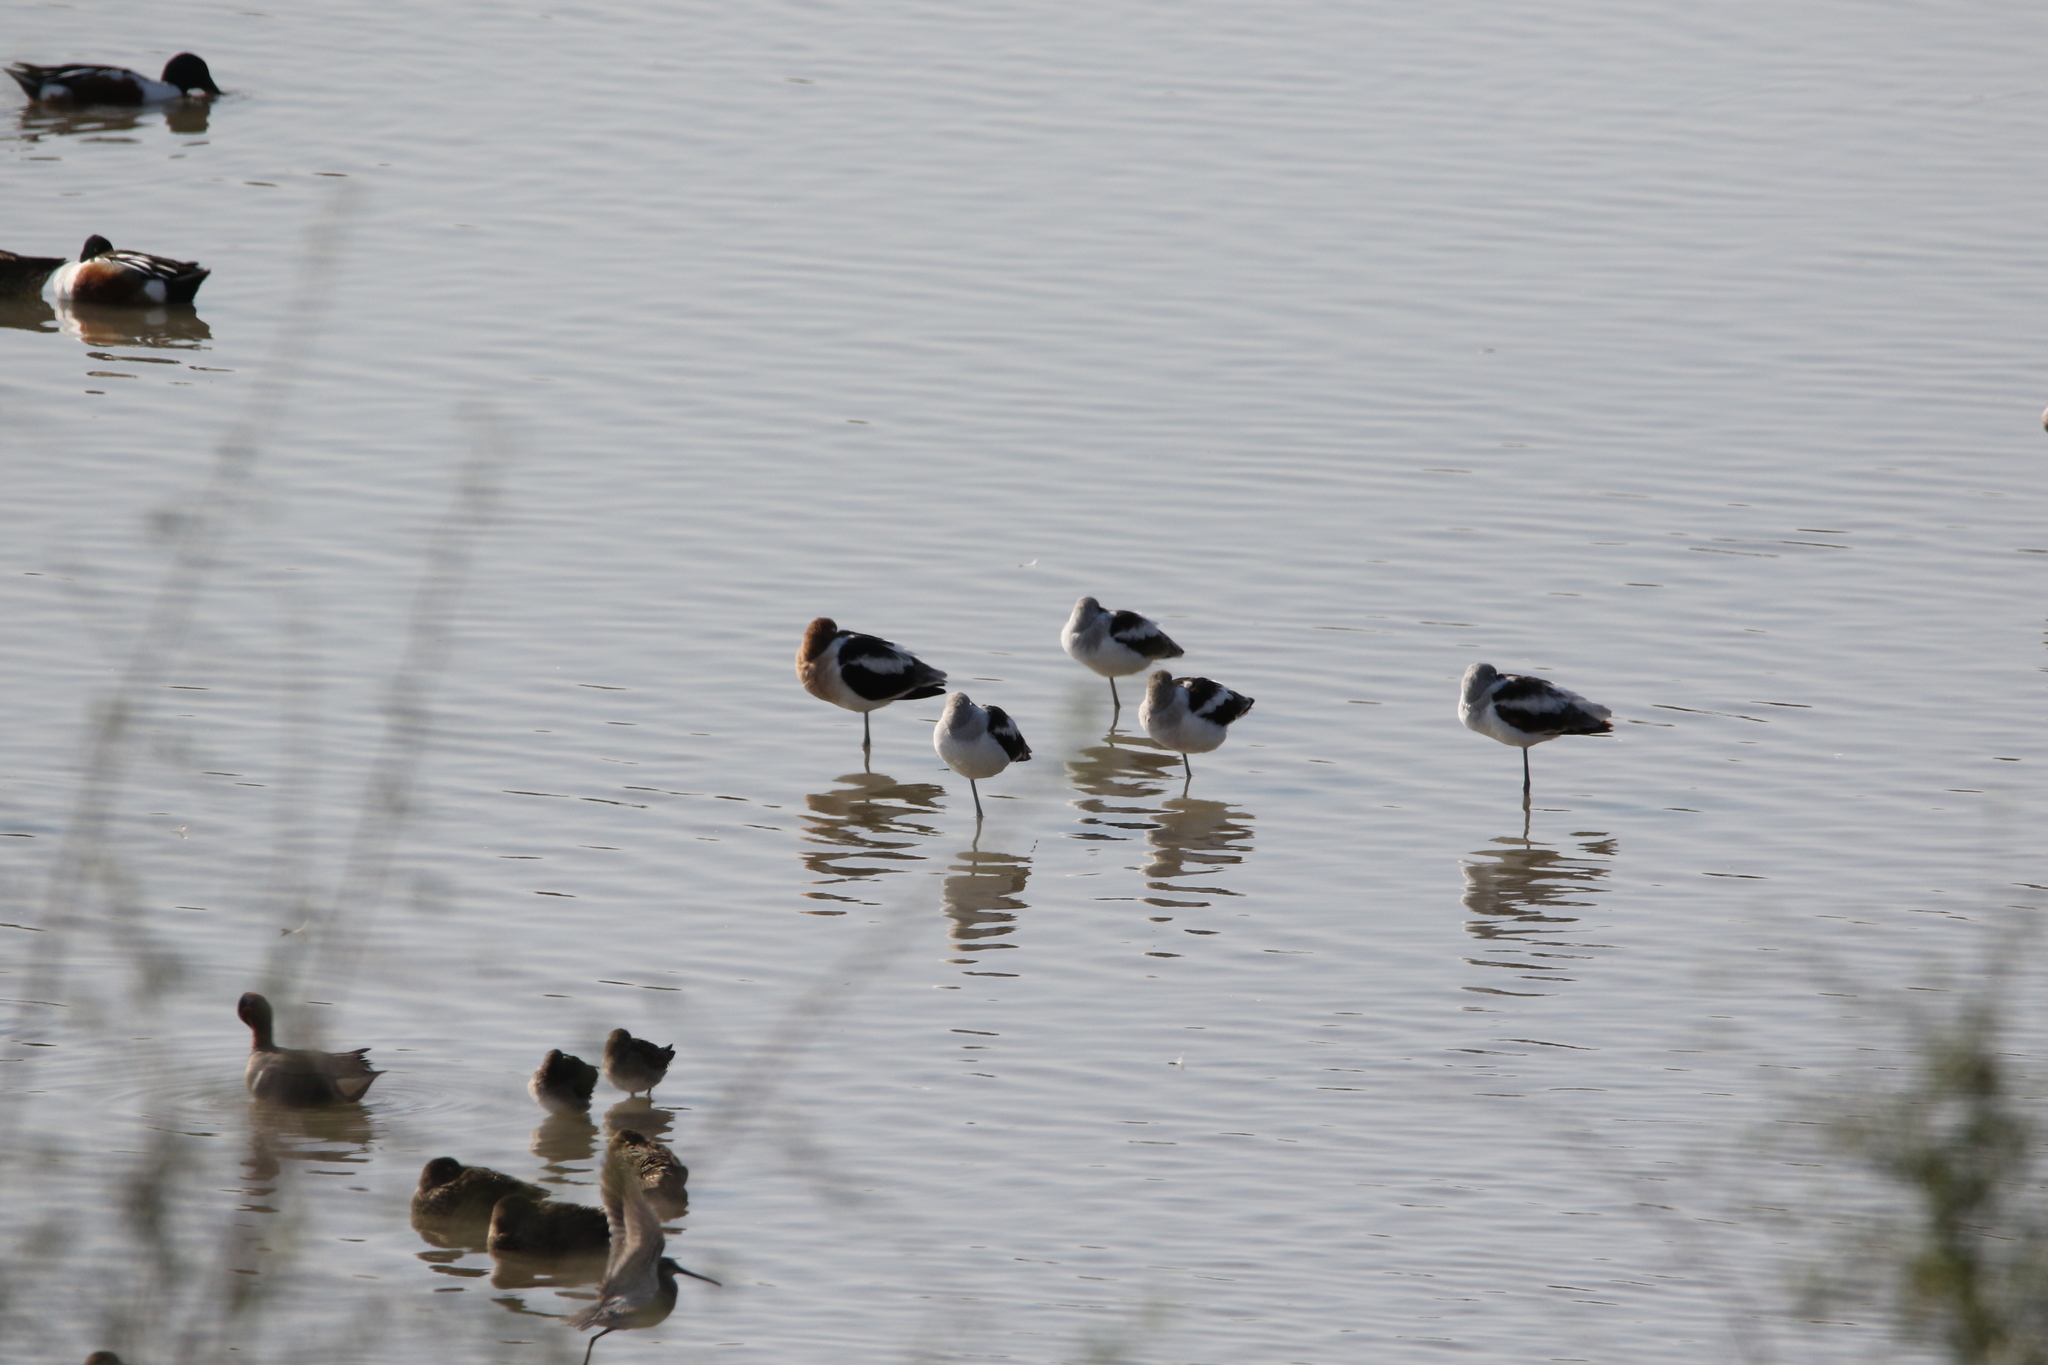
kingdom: Animalia
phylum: Chordata
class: Aves
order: Charadriiformes
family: Recurvirostridae
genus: Recurvirostra
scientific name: Recurvirostra americana
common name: American avocet
